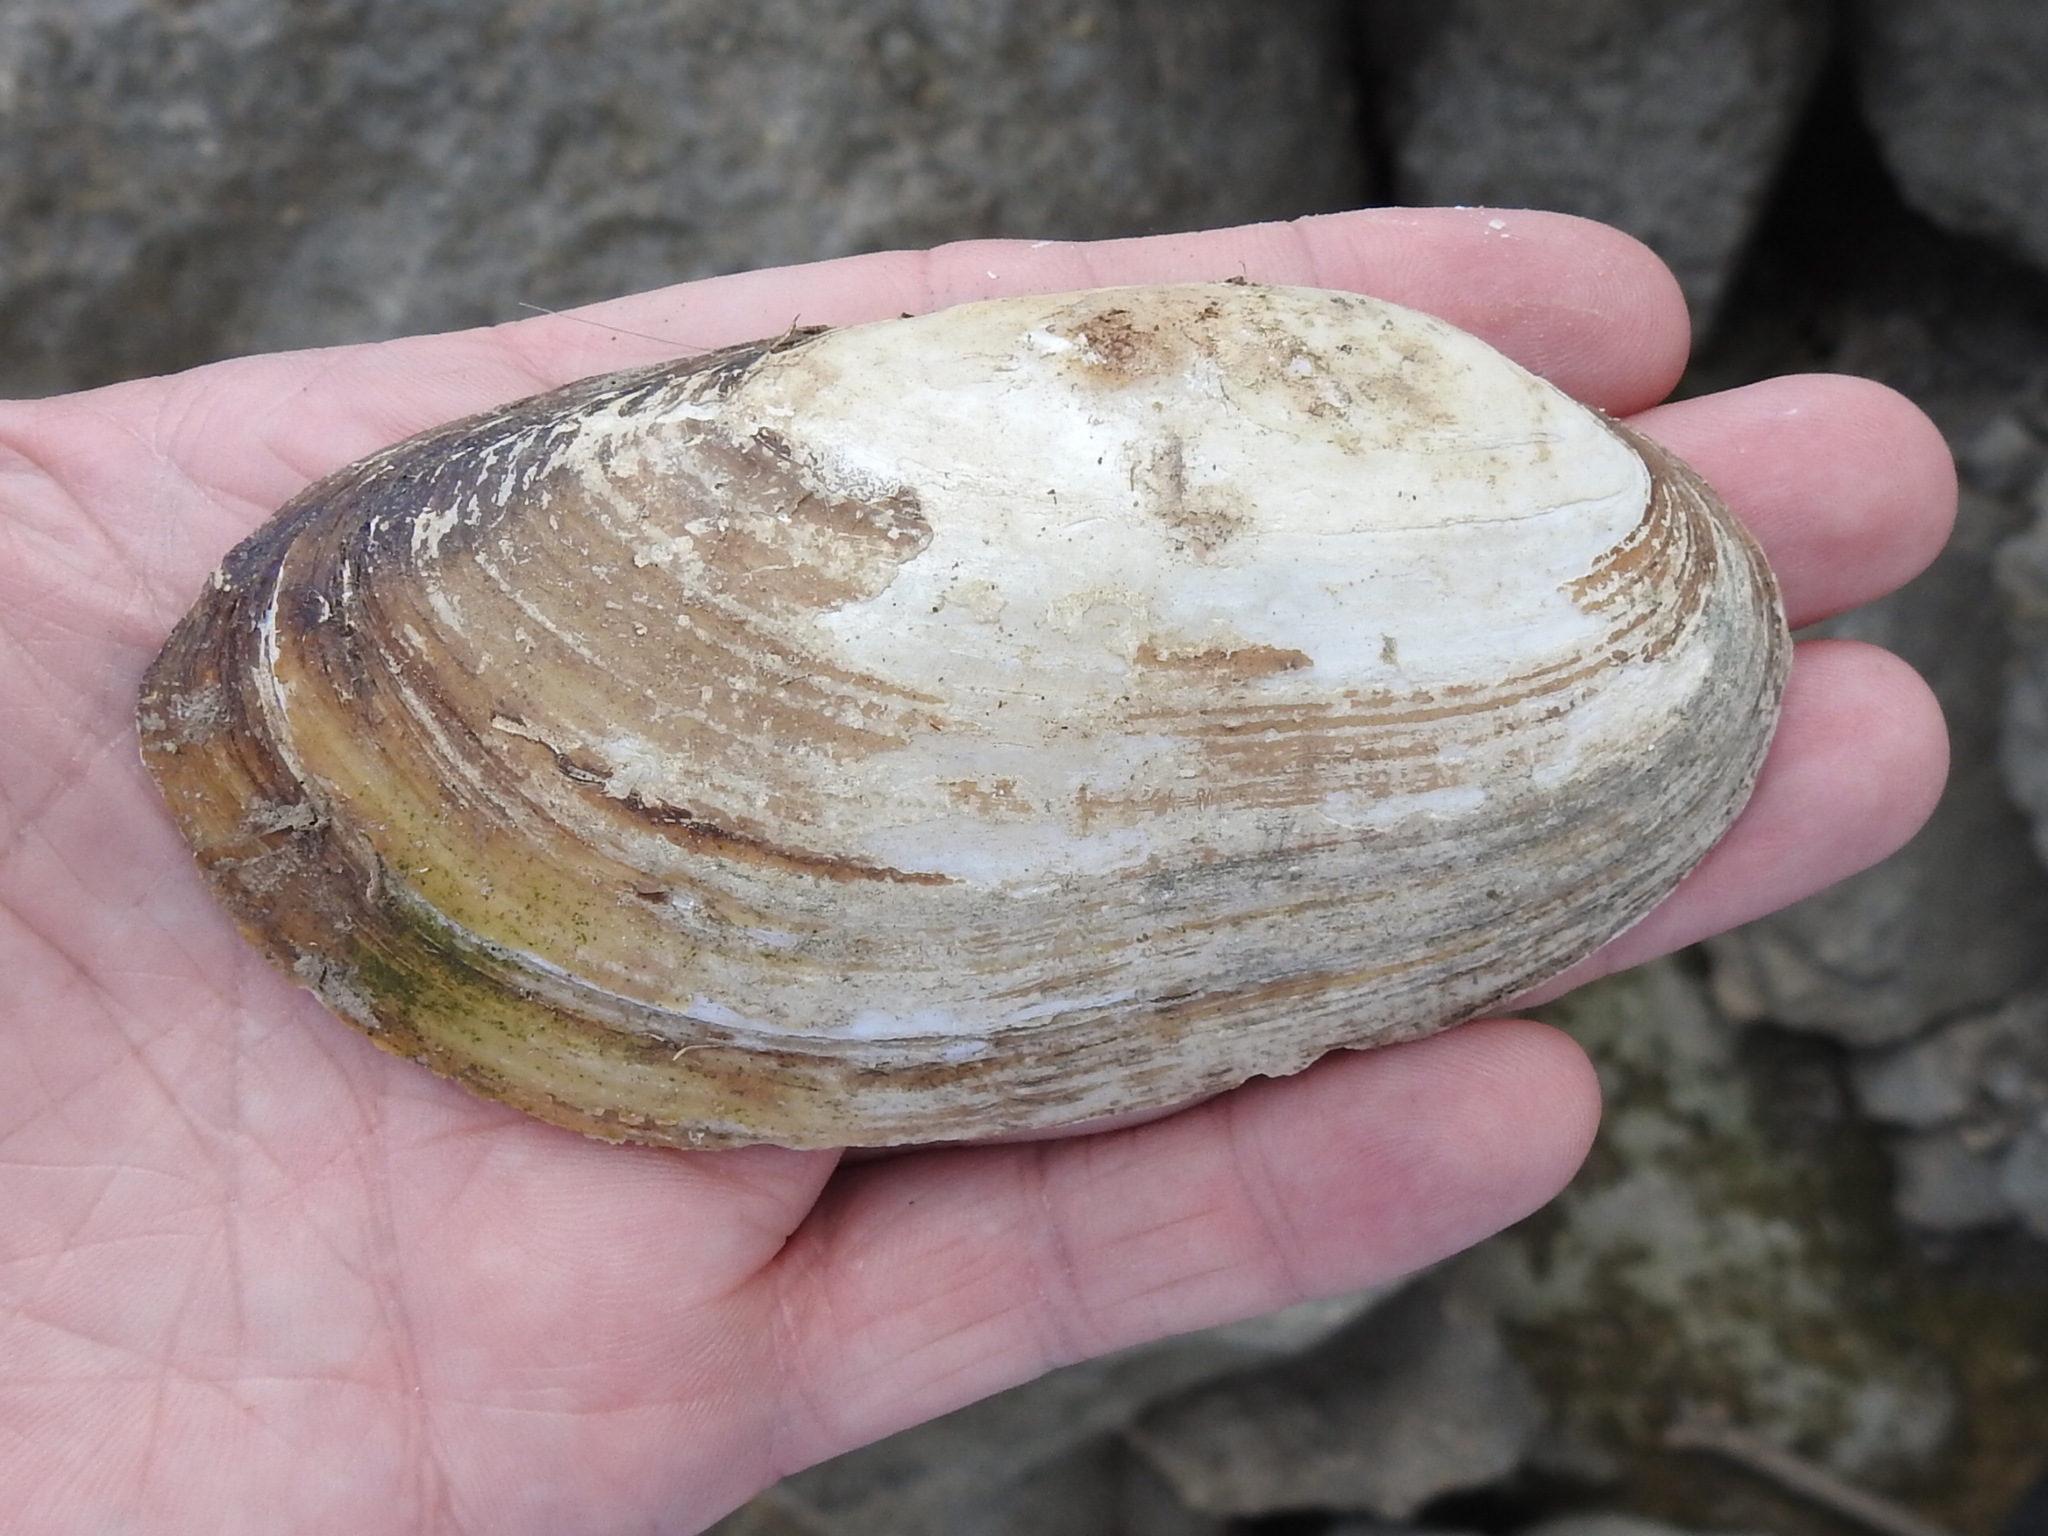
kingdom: Animalia
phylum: Mollusca
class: Bivalvia
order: Unionida
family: Unionidae
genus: Lampsilis
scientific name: Lampsilis teres
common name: Yellow sandshell
